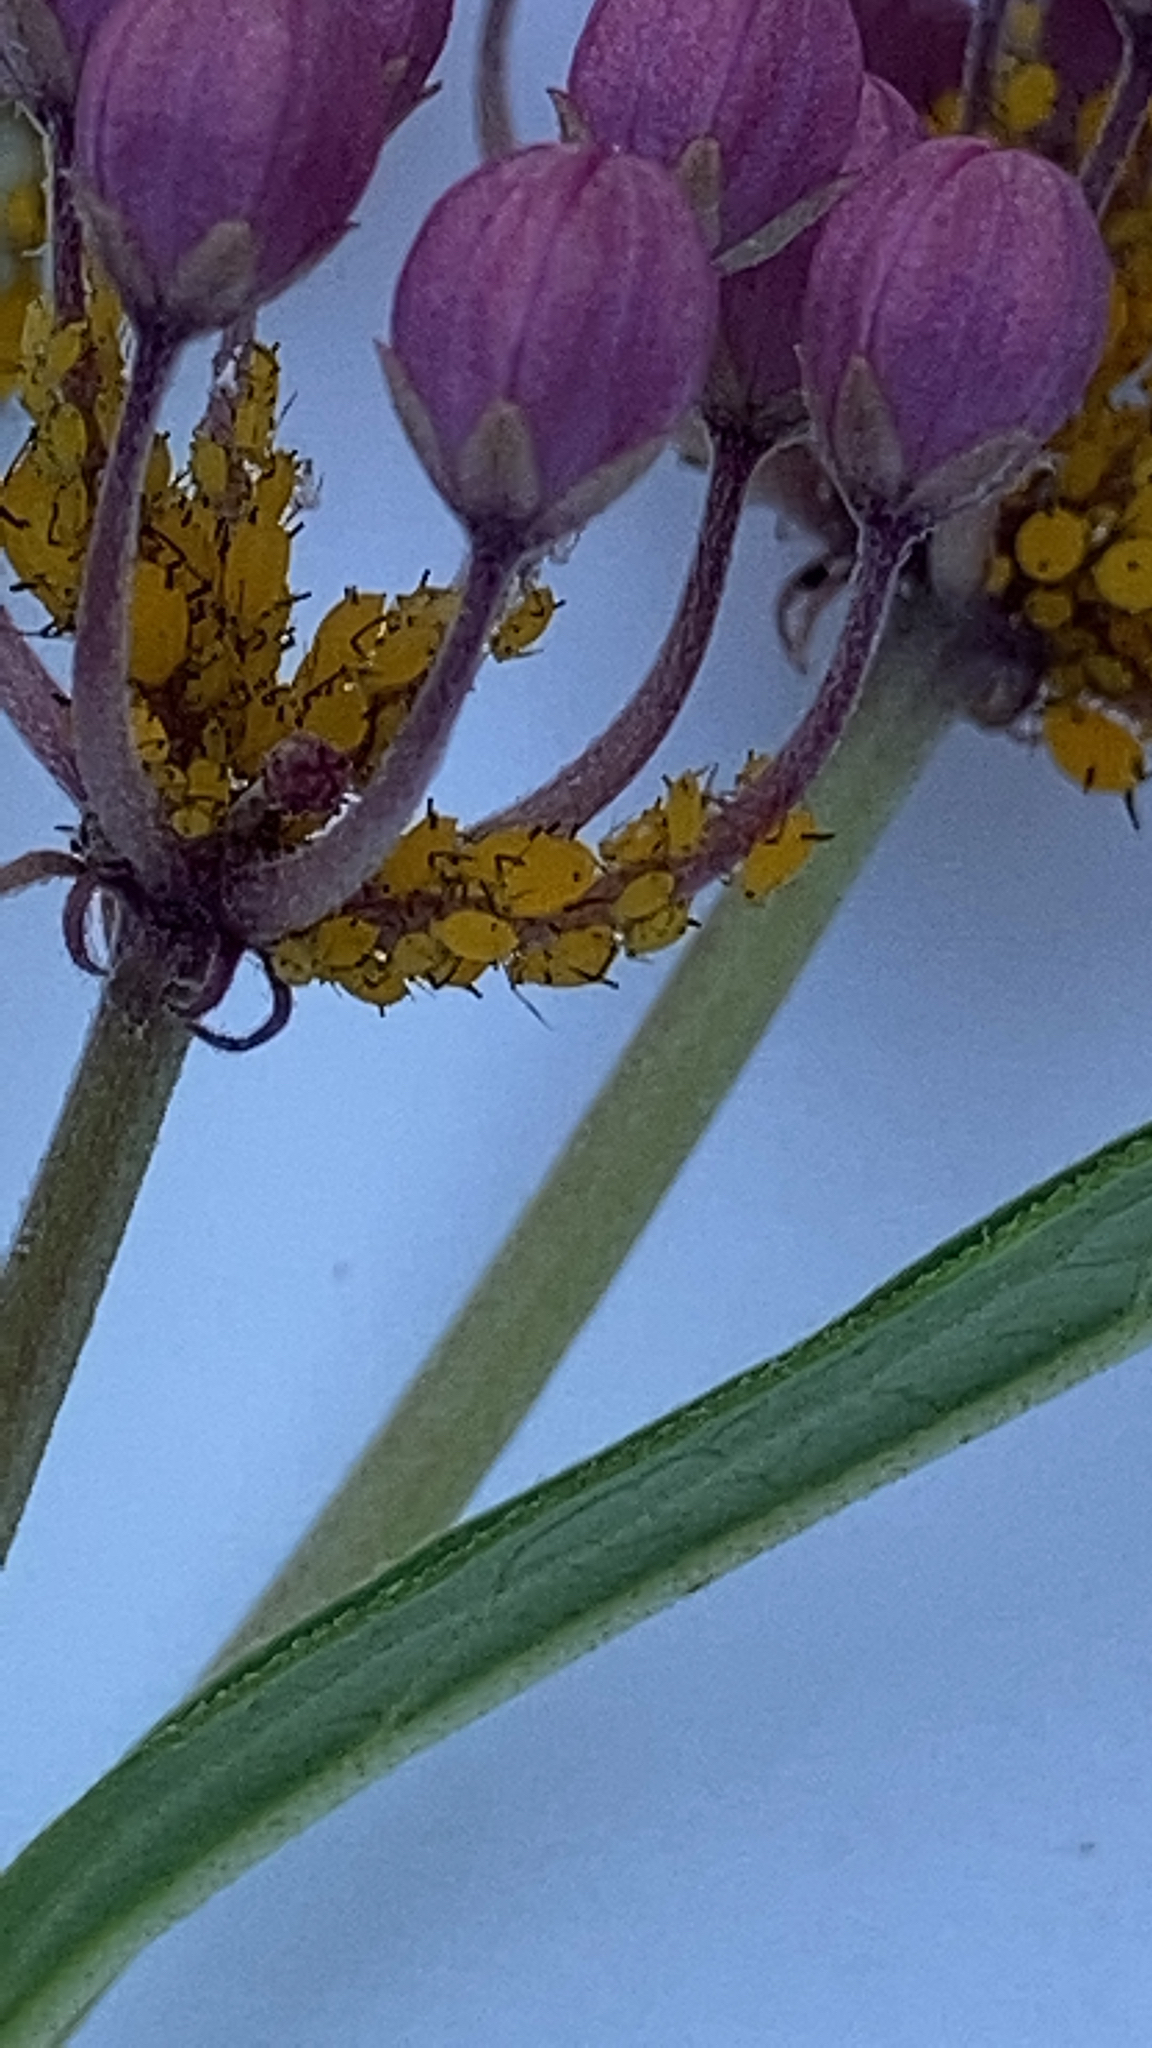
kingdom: Animalia
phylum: Arthropoda
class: Insecta
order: Hemiptera
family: Aphididae
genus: Aphis
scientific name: Aphis nerii
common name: Oleander aphid
